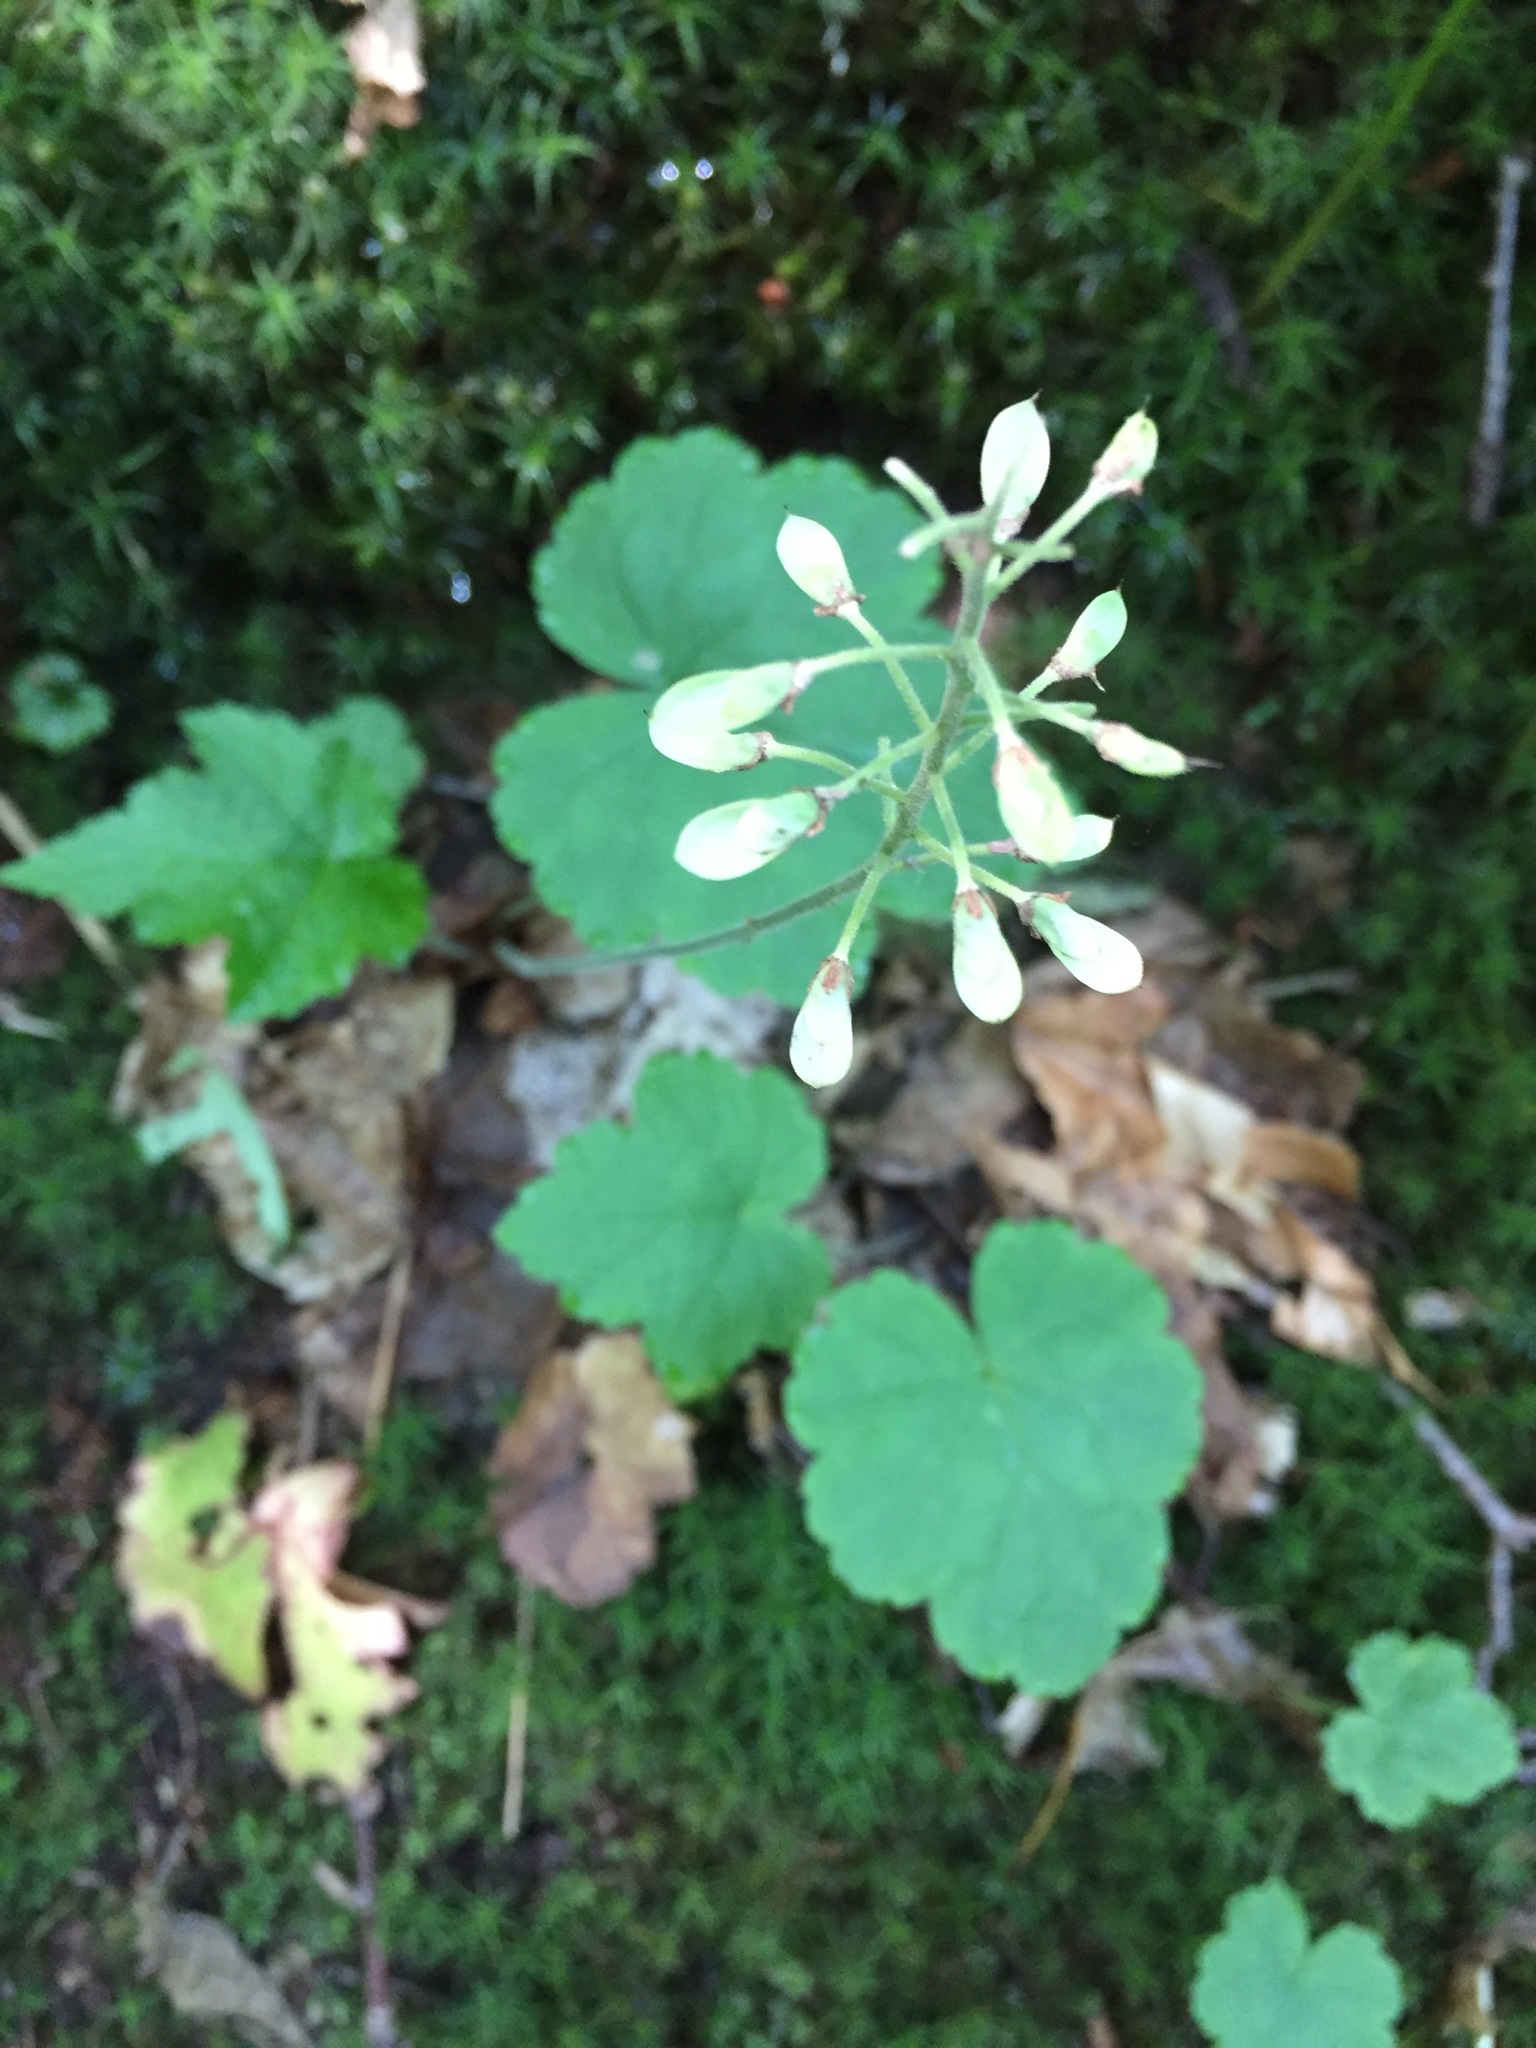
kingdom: Plantae
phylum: Tracheophyta
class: Magnoliopsida
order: Saxifragales
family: Saxifragaceae
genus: Tiarella
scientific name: Tiarella stolonifera
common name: Stoloniferous foamflower
